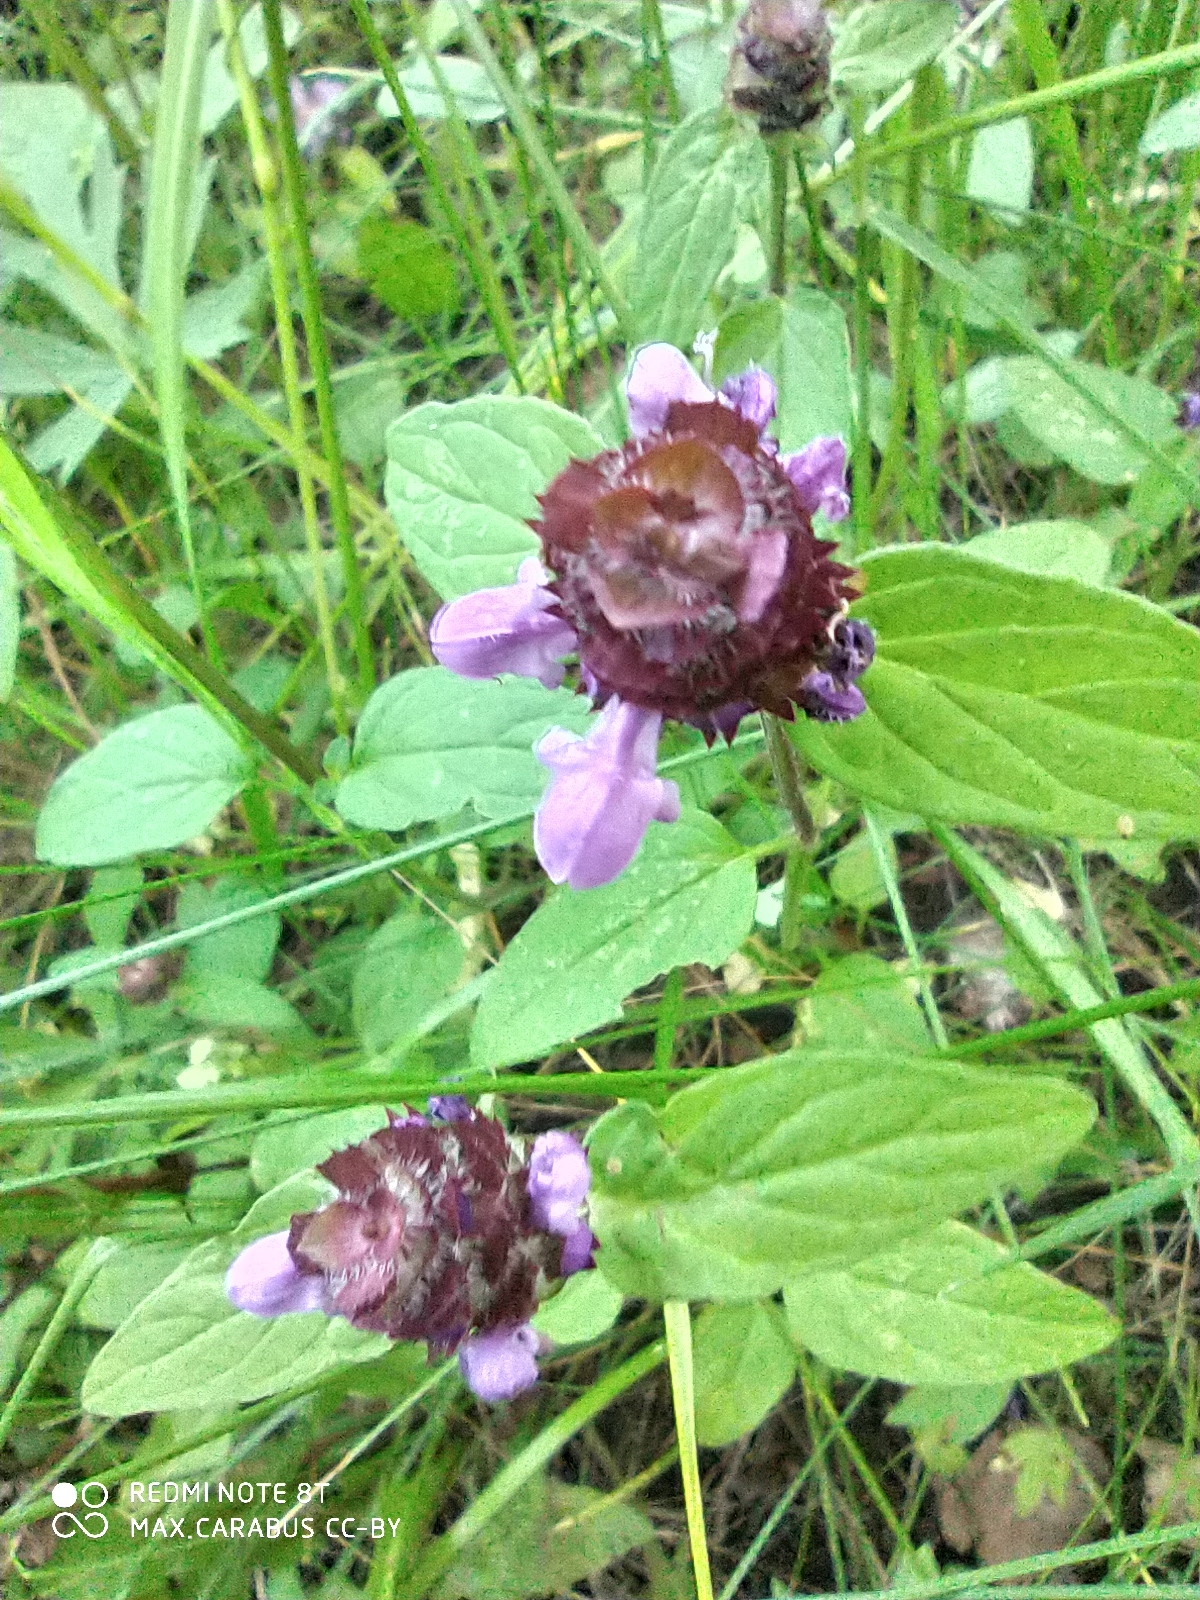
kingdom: Plantae
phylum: Tracheophyta
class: Magnoliopsida
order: Lamiales
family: Lamiaceae
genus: Prunella
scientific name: Prunella vulgaris
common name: Heal-all
